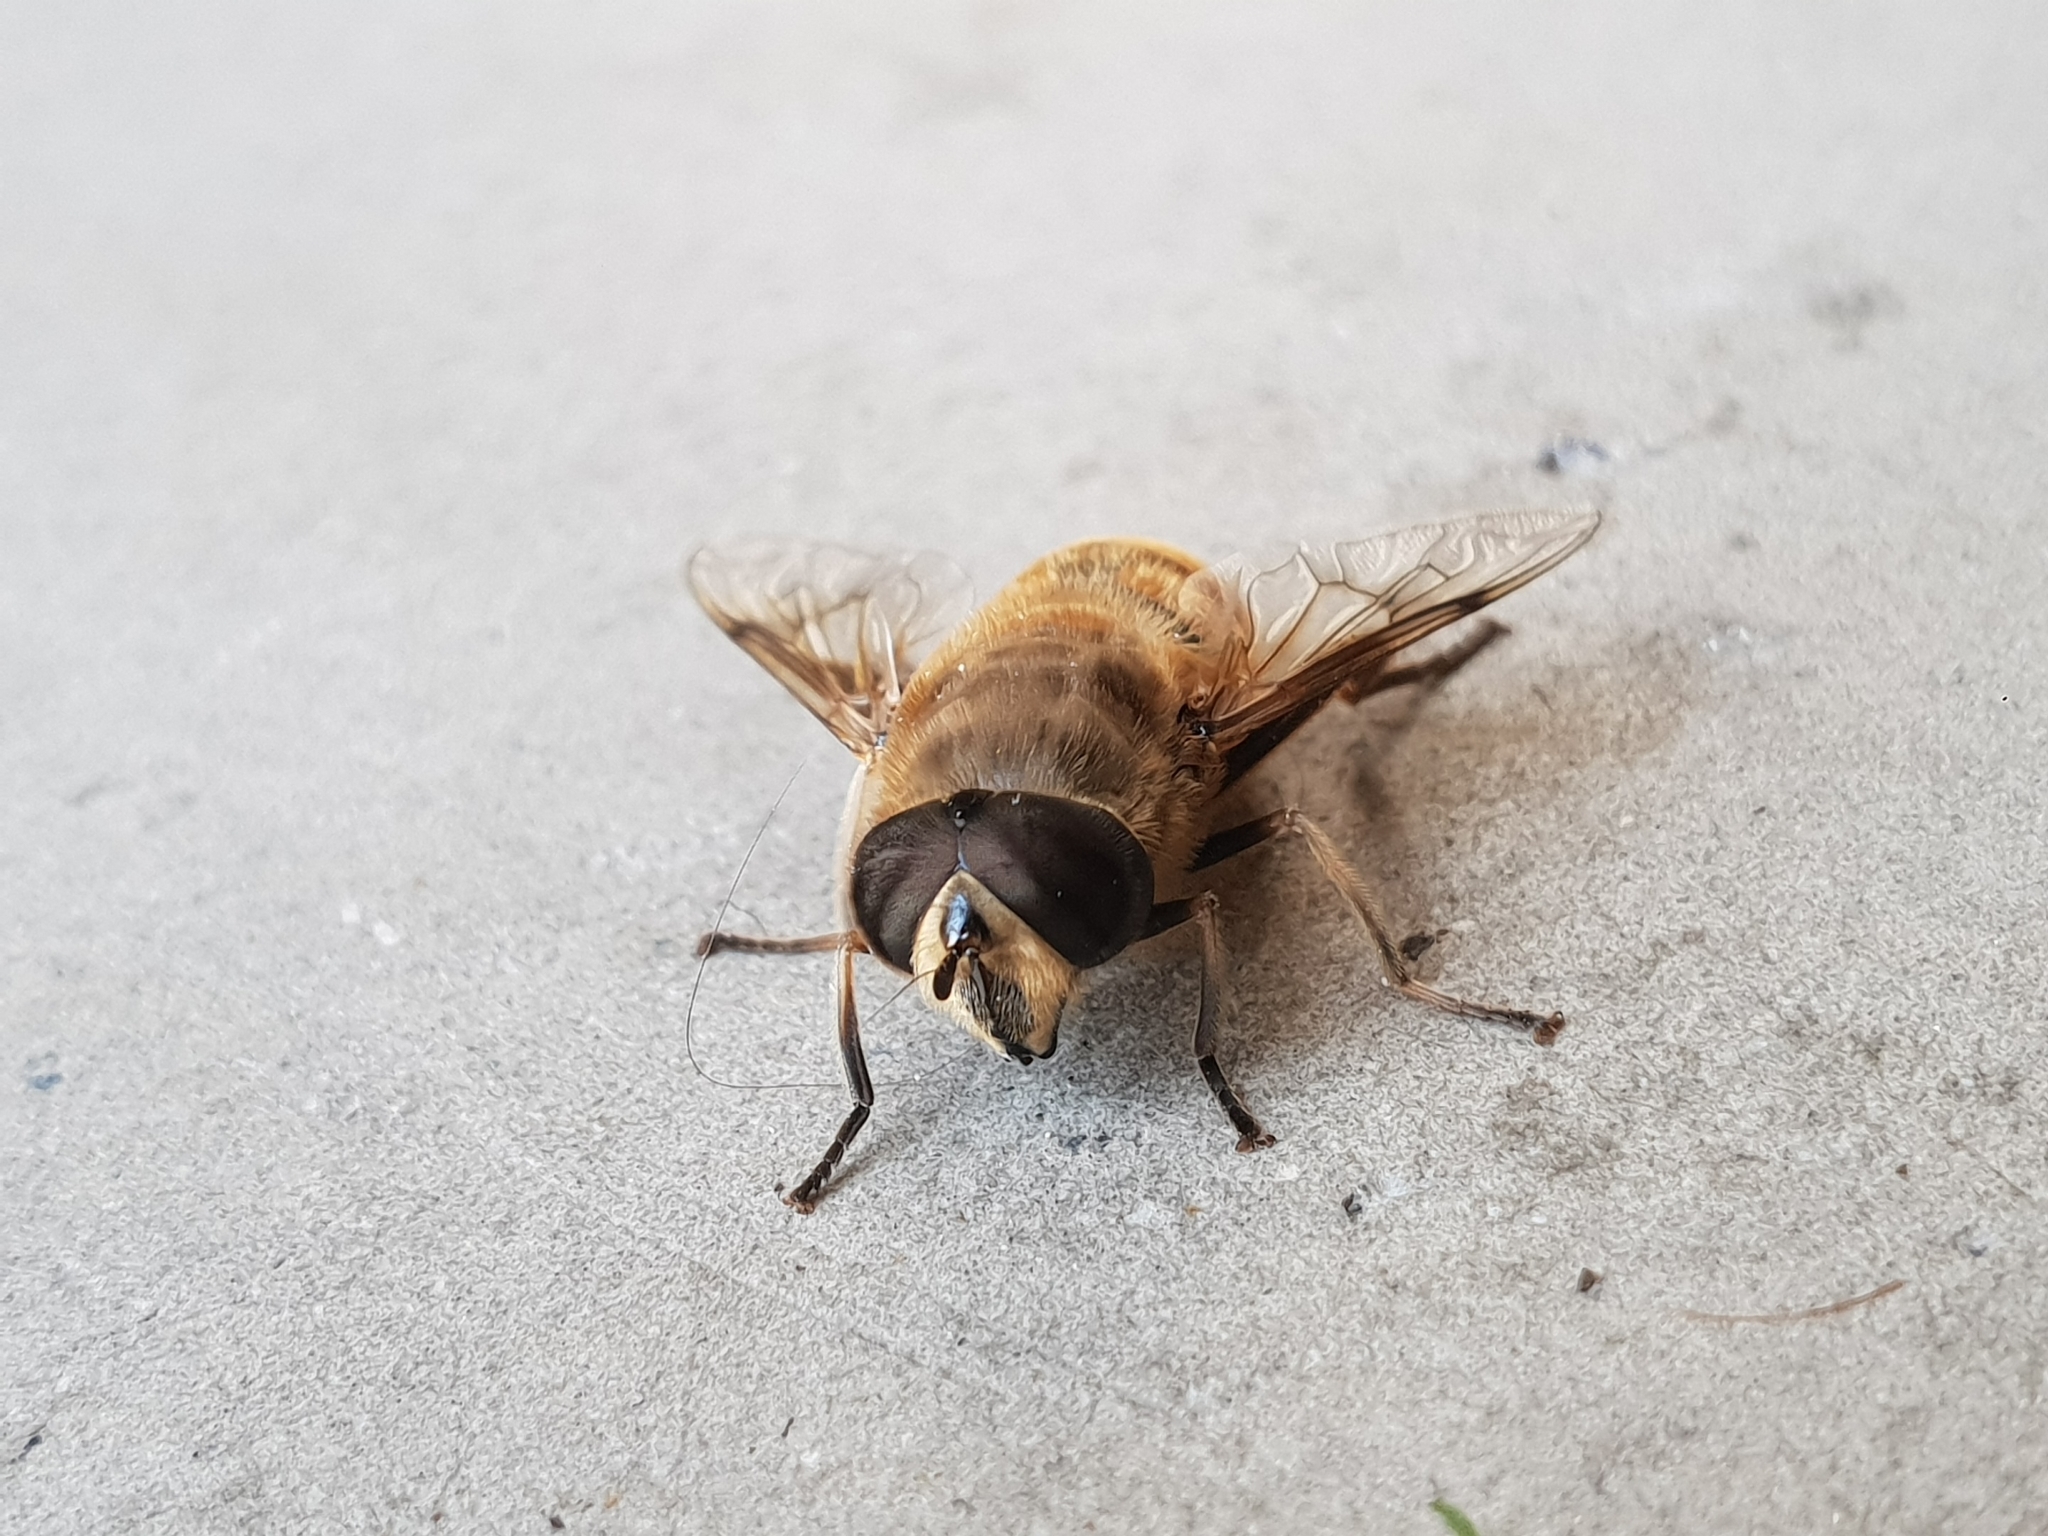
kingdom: Animalia
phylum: Arthropoda
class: Insecta
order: Diptera
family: Syrphidae
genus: Eristalis
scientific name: Eristalis tenax
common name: Drone fly
